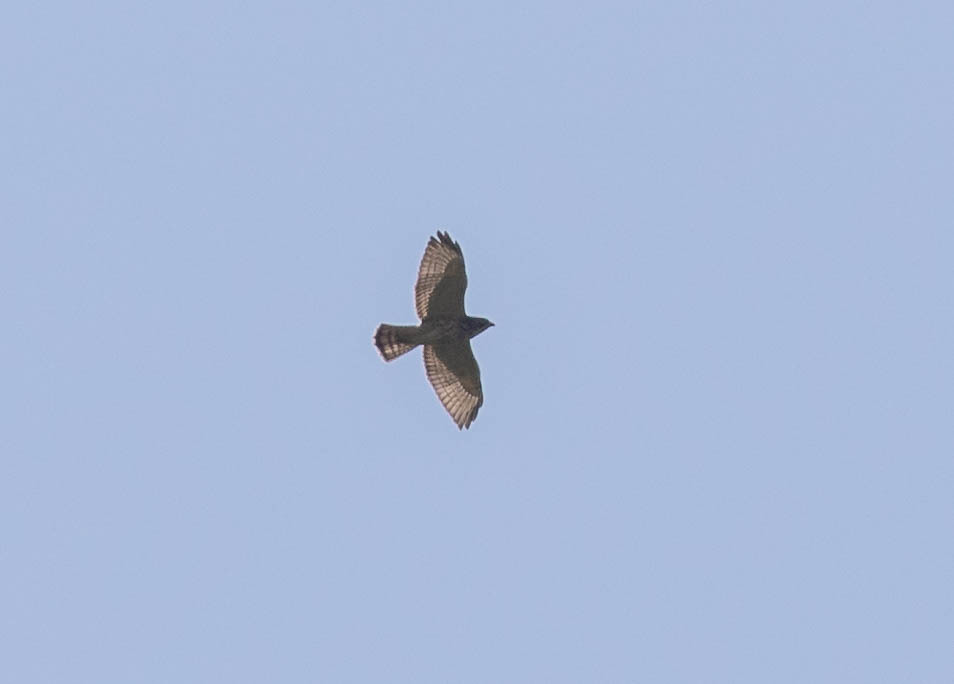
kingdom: Animalia
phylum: Chordata
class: Aves
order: Accipitriformes
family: Accipitridae
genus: Buteo
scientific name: Buteo platypterus
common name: Broad-winged hawk
